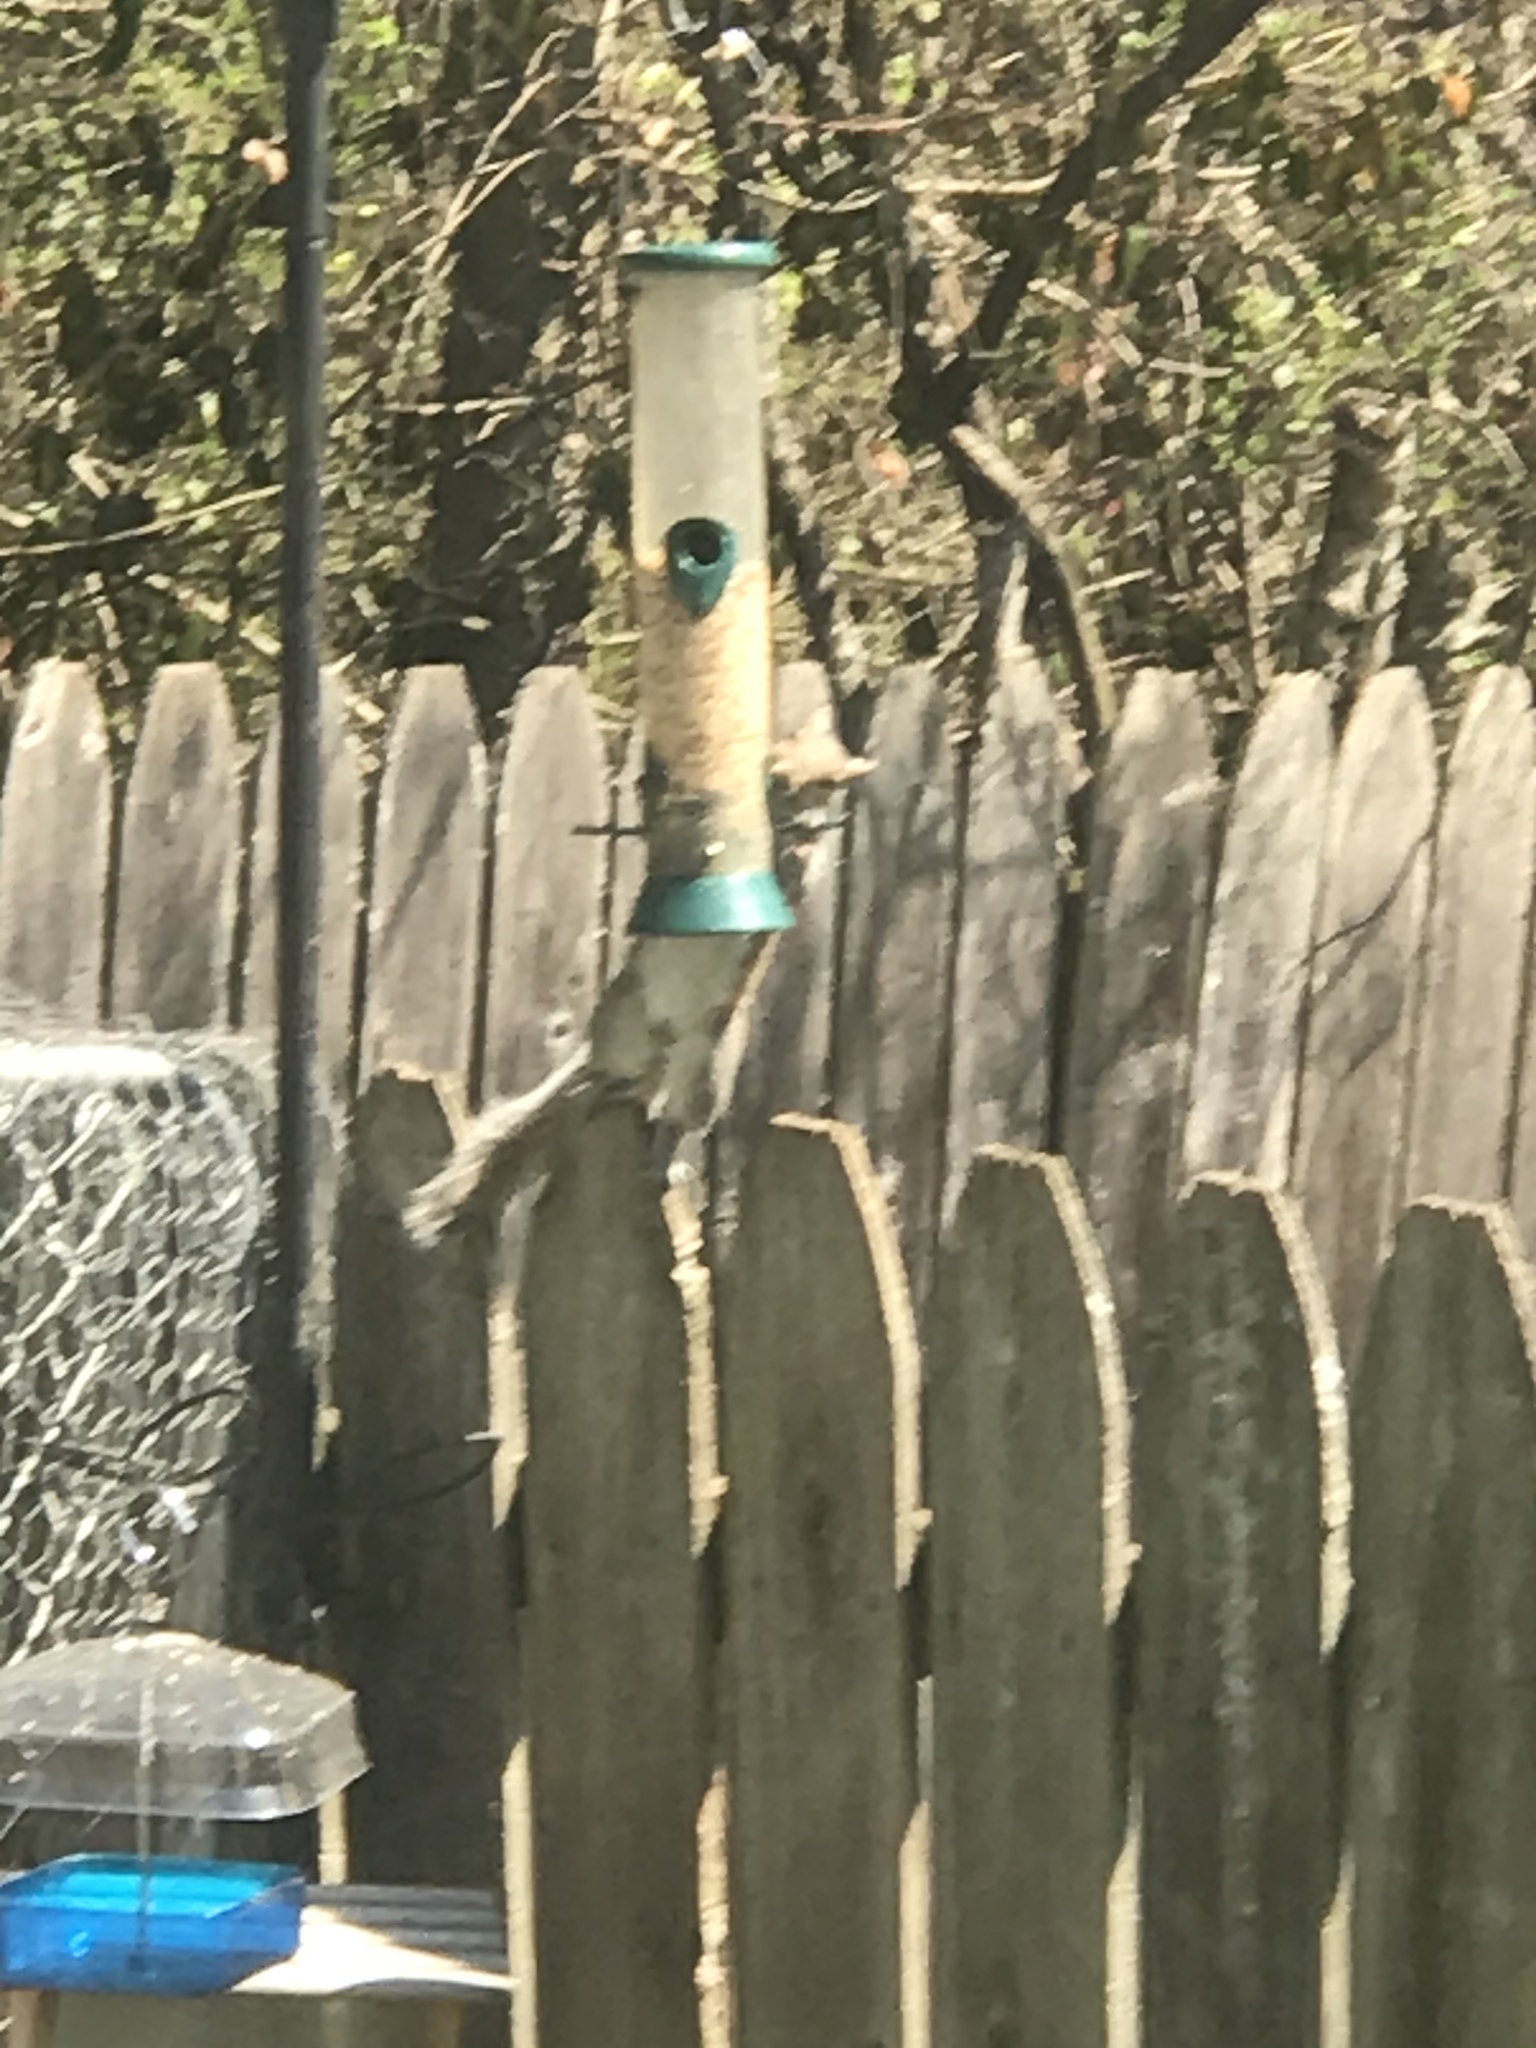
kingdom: Animalia
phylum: Chordata
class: Mammalia
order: Rodentia
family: Sciuridae
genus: Sciurus
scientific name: Sciurus carolinensis
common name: Eastern gray squirrel
